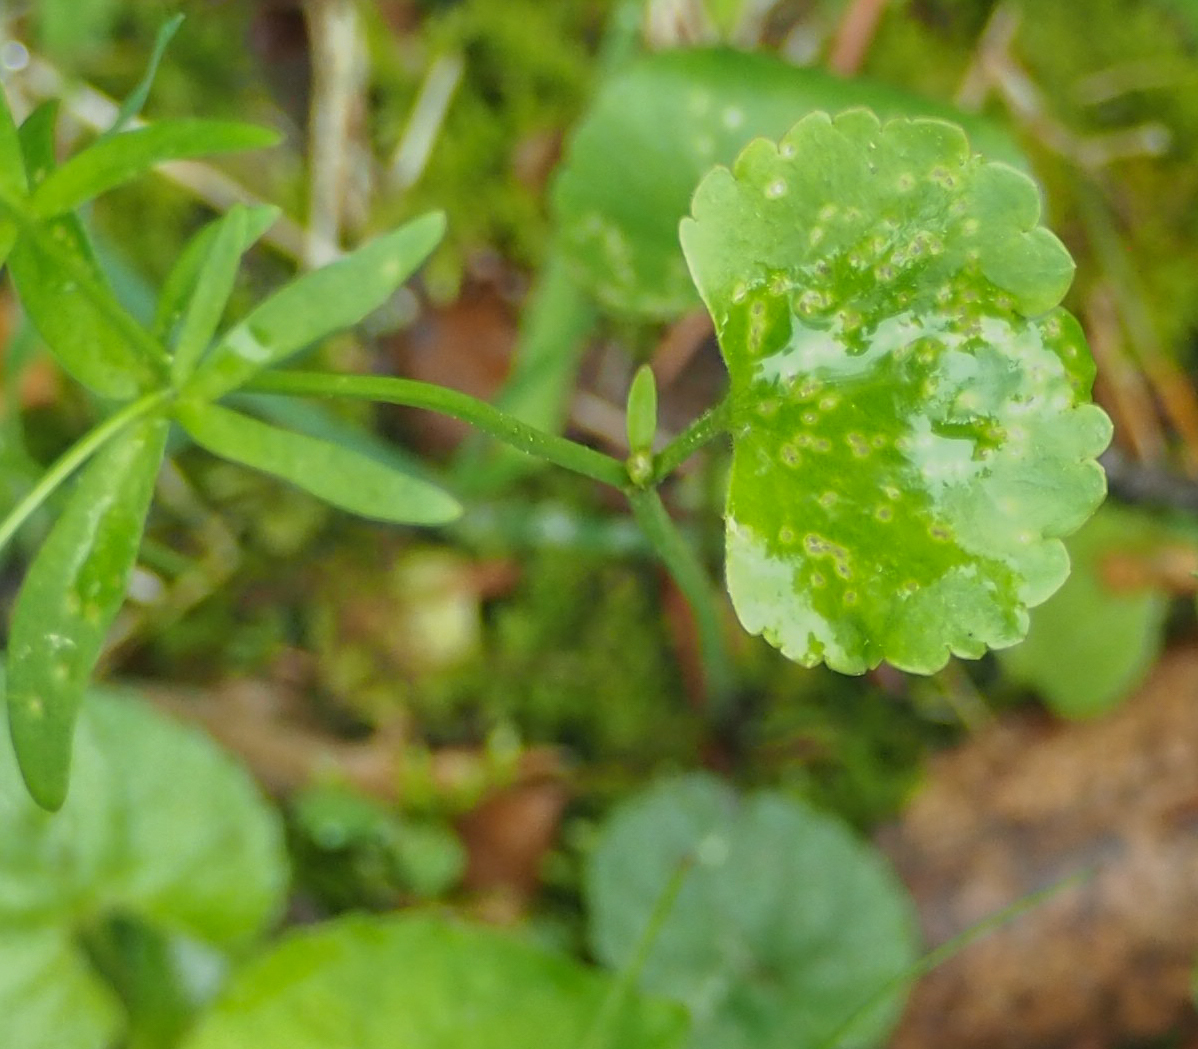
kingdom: Plantae
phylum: Tracheophyta
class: Magnoliopsida
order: Ranunculales
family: Ranunculaceae
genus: Ranunculus
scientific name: Ranunculus abortivus
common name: Early wood buttercup
